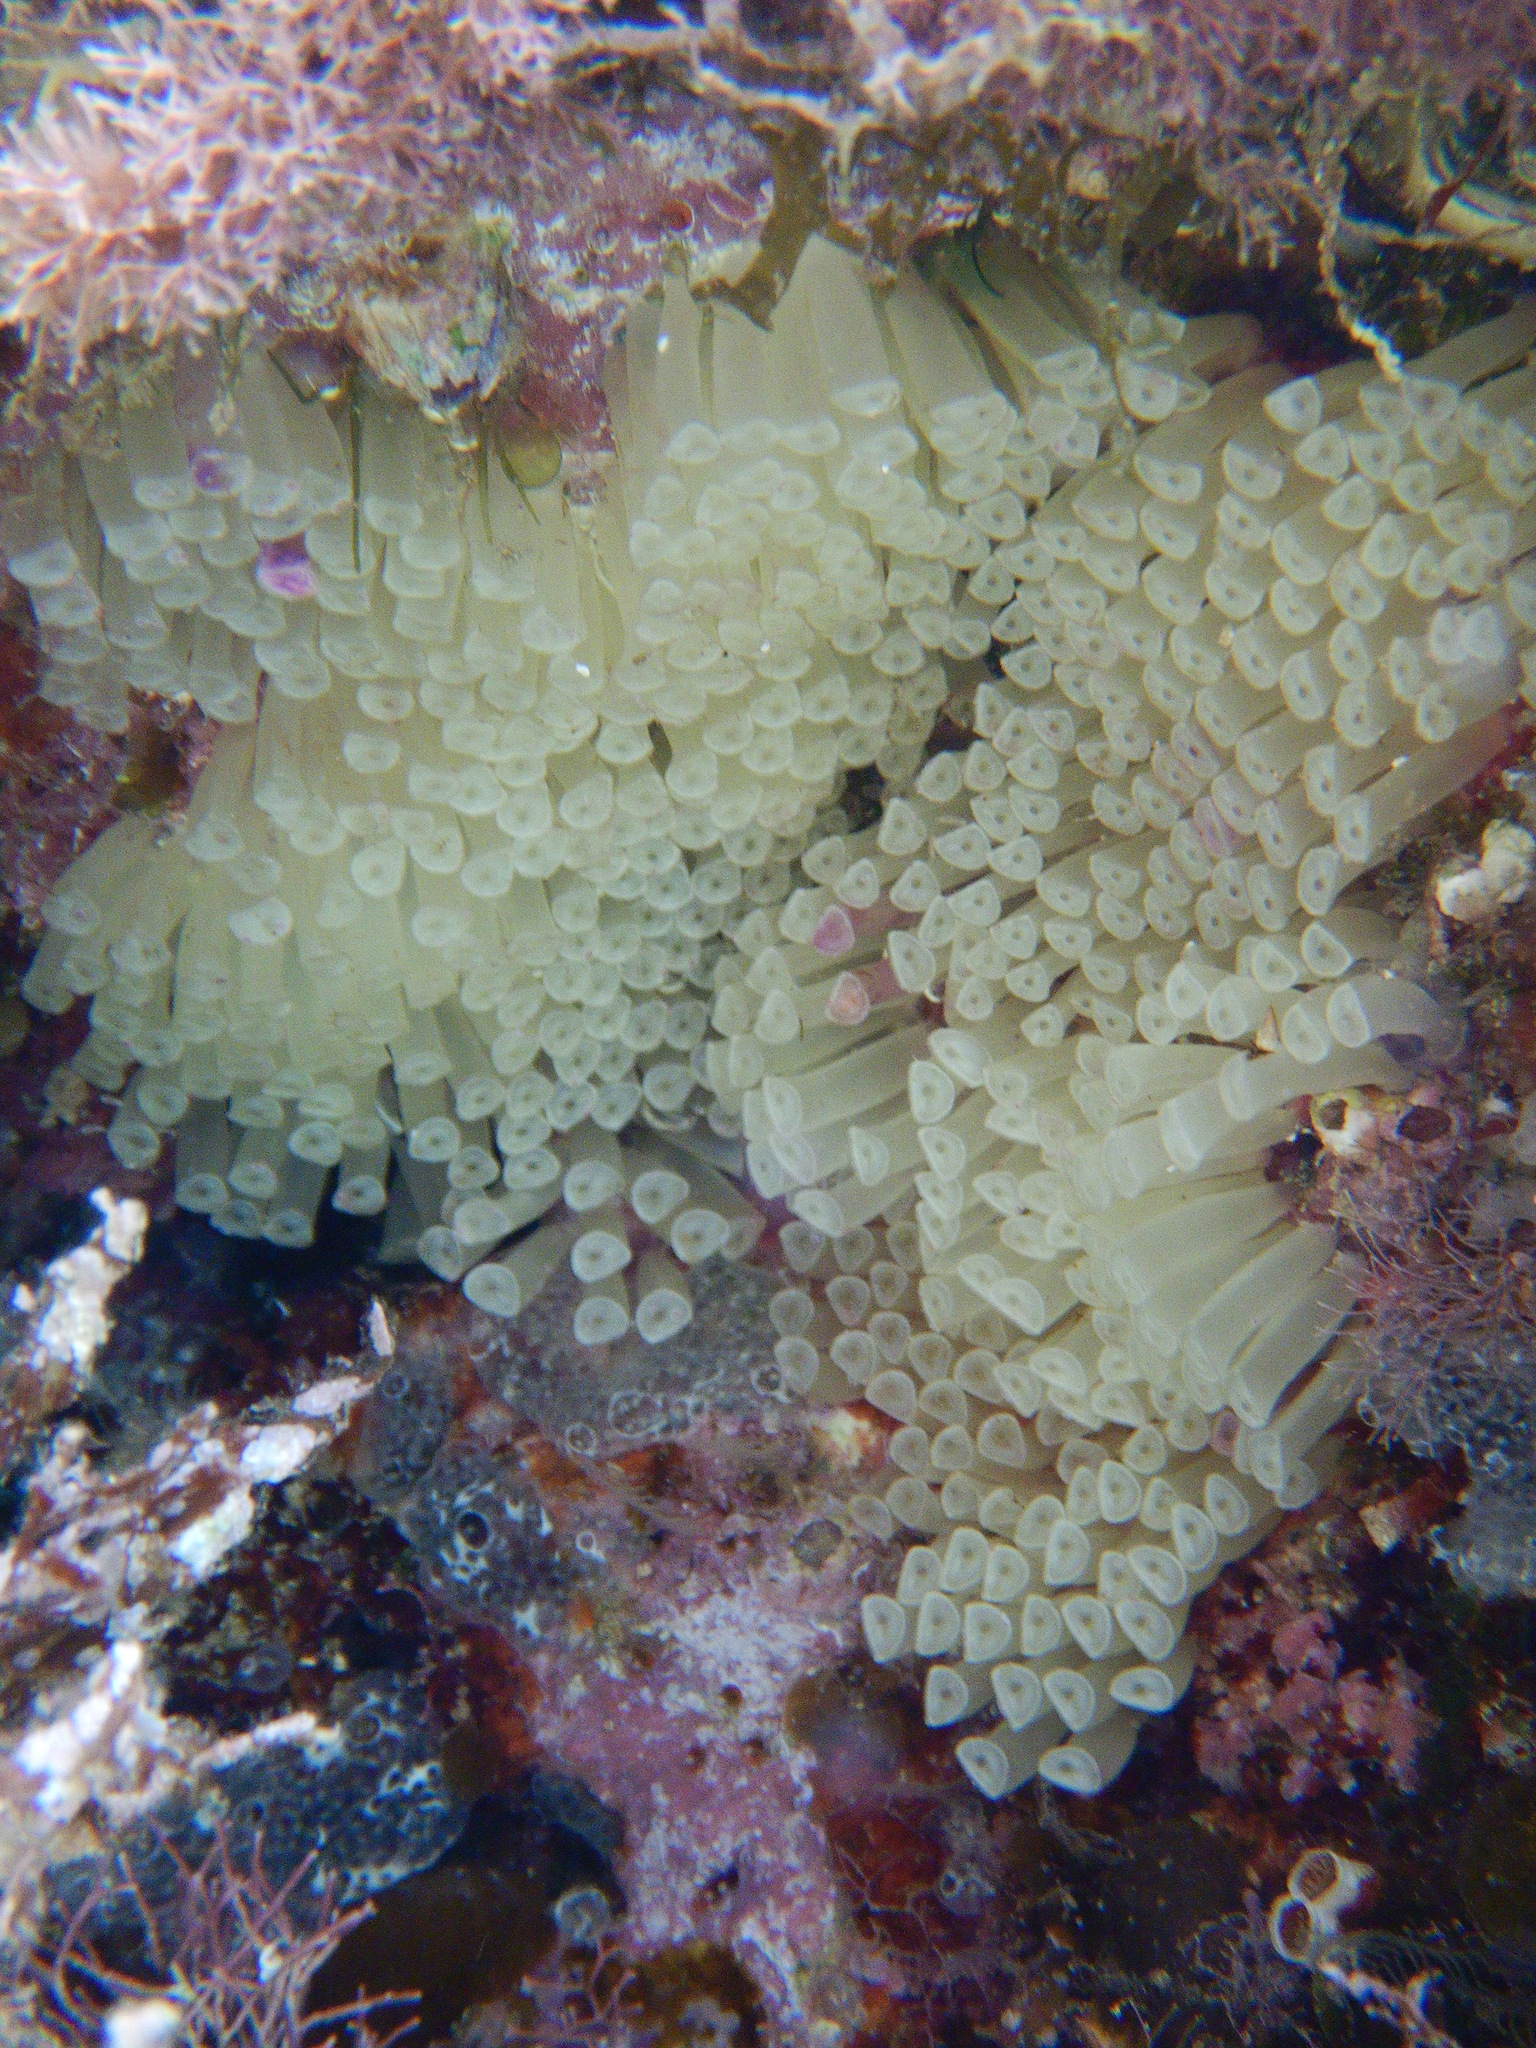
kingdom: Animalia
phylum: Mollusca
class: Gastropoda
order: Neogastropoda
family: Muricidae
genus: Stramonita
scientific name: Stramonita haemastoma
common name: Florida dog winkle
